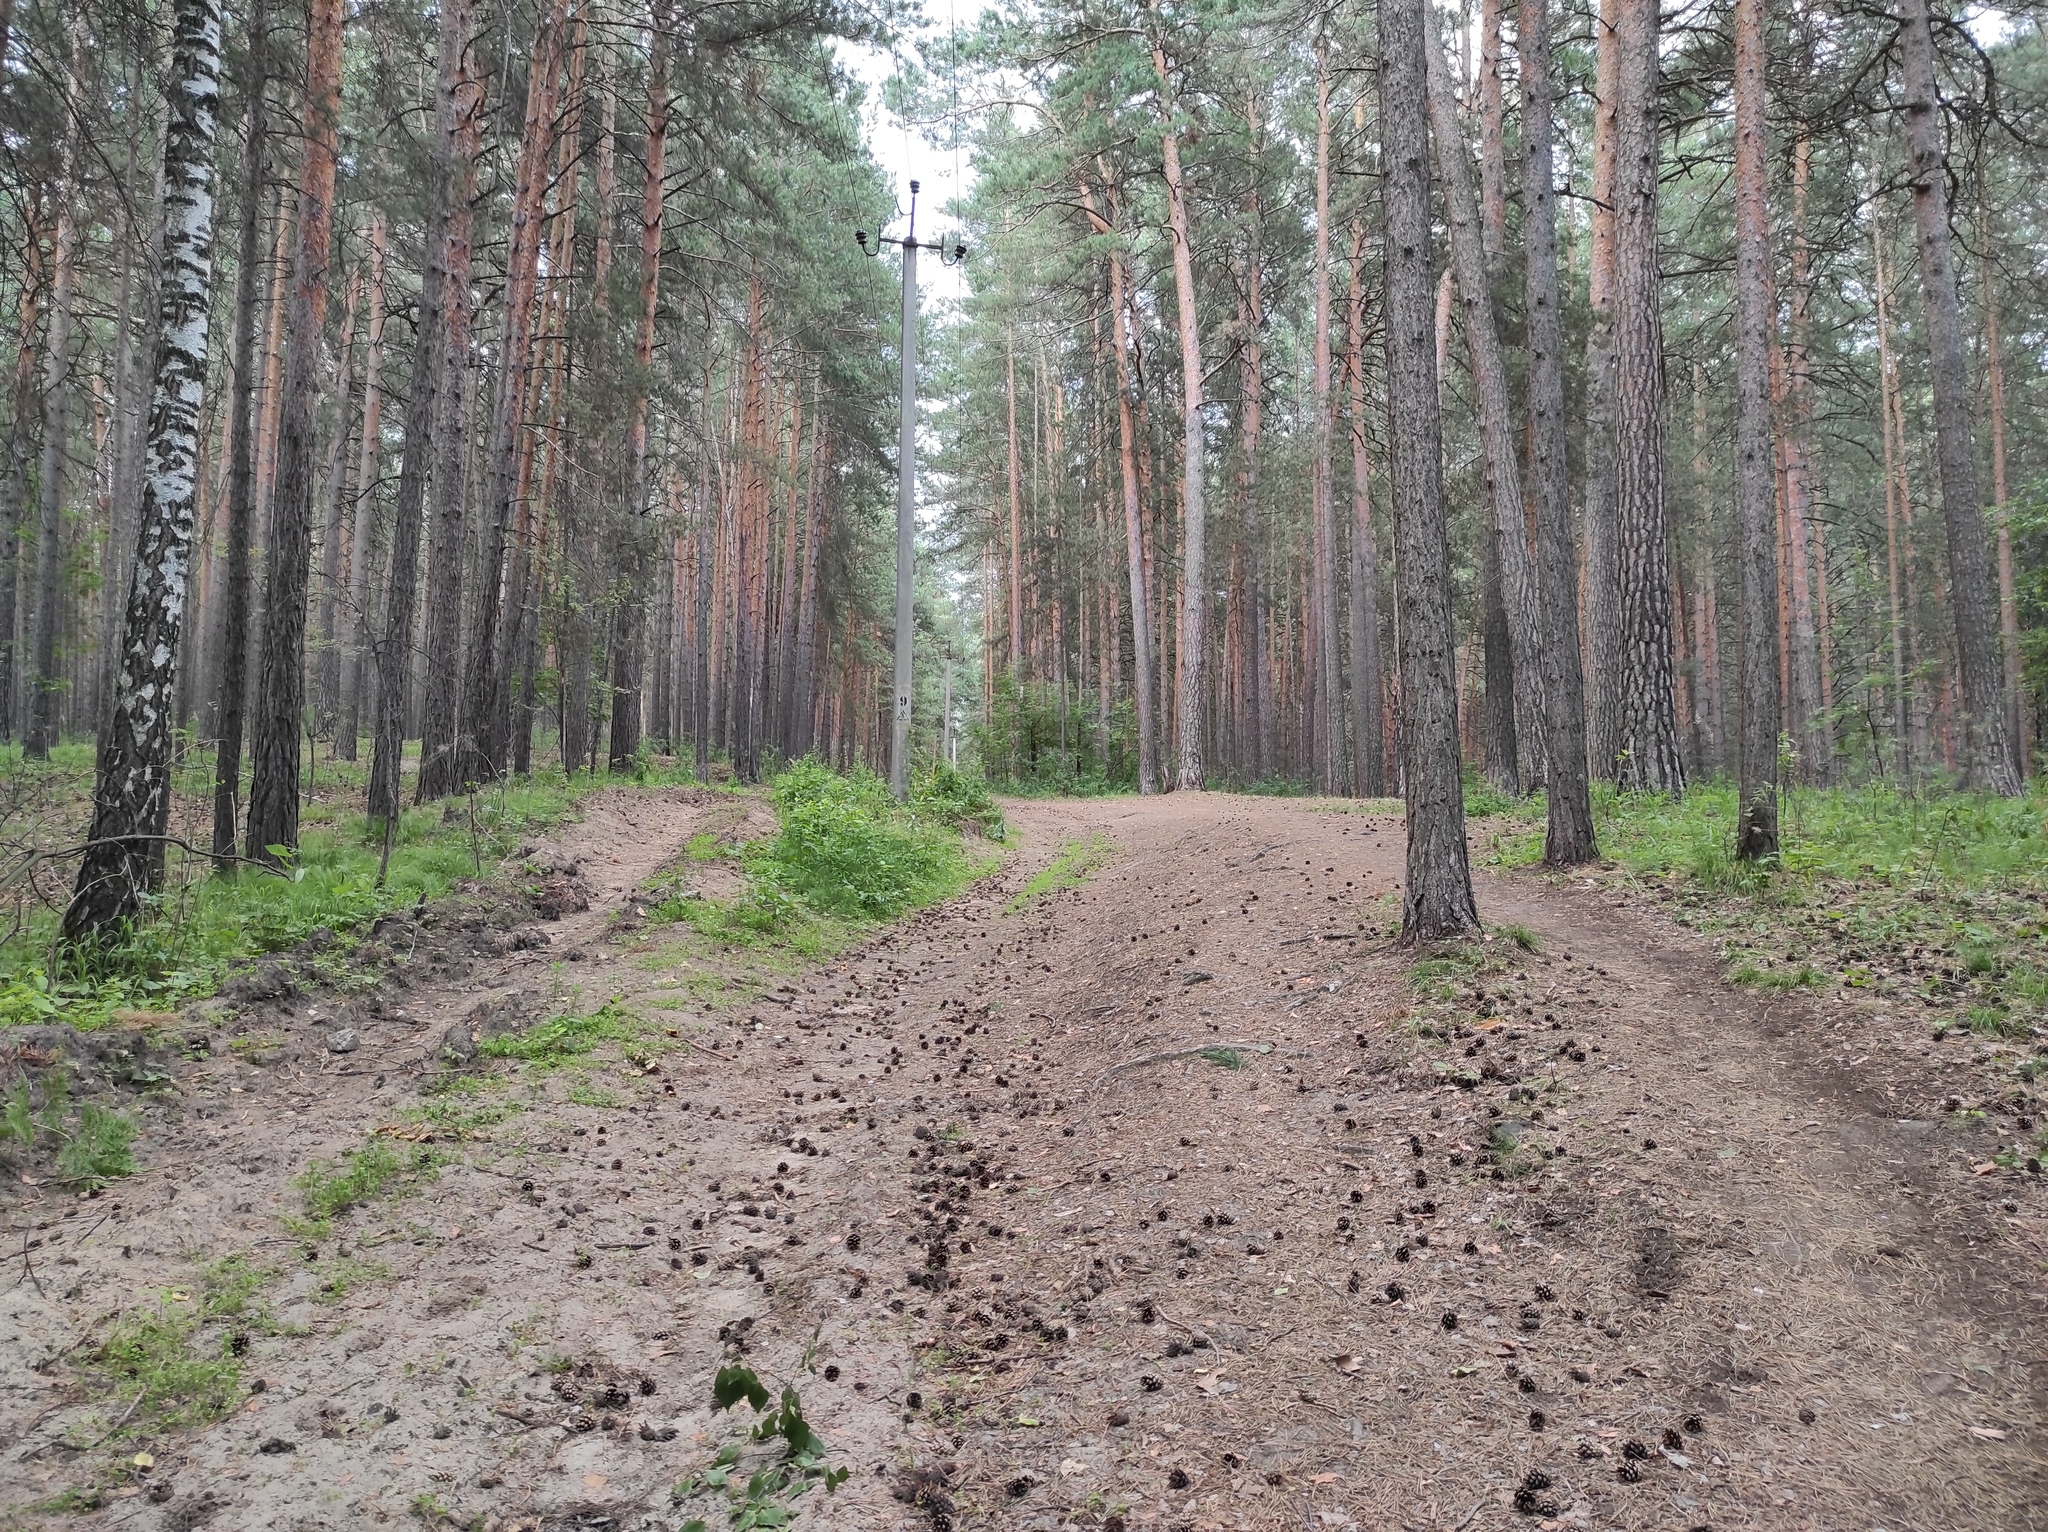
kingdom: Plantae
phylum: Tracheophyta
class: Pinopsida
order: Pinales
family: Pinaceae
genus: Pinus
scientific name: Pinus sylvestris
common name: Scots pine
